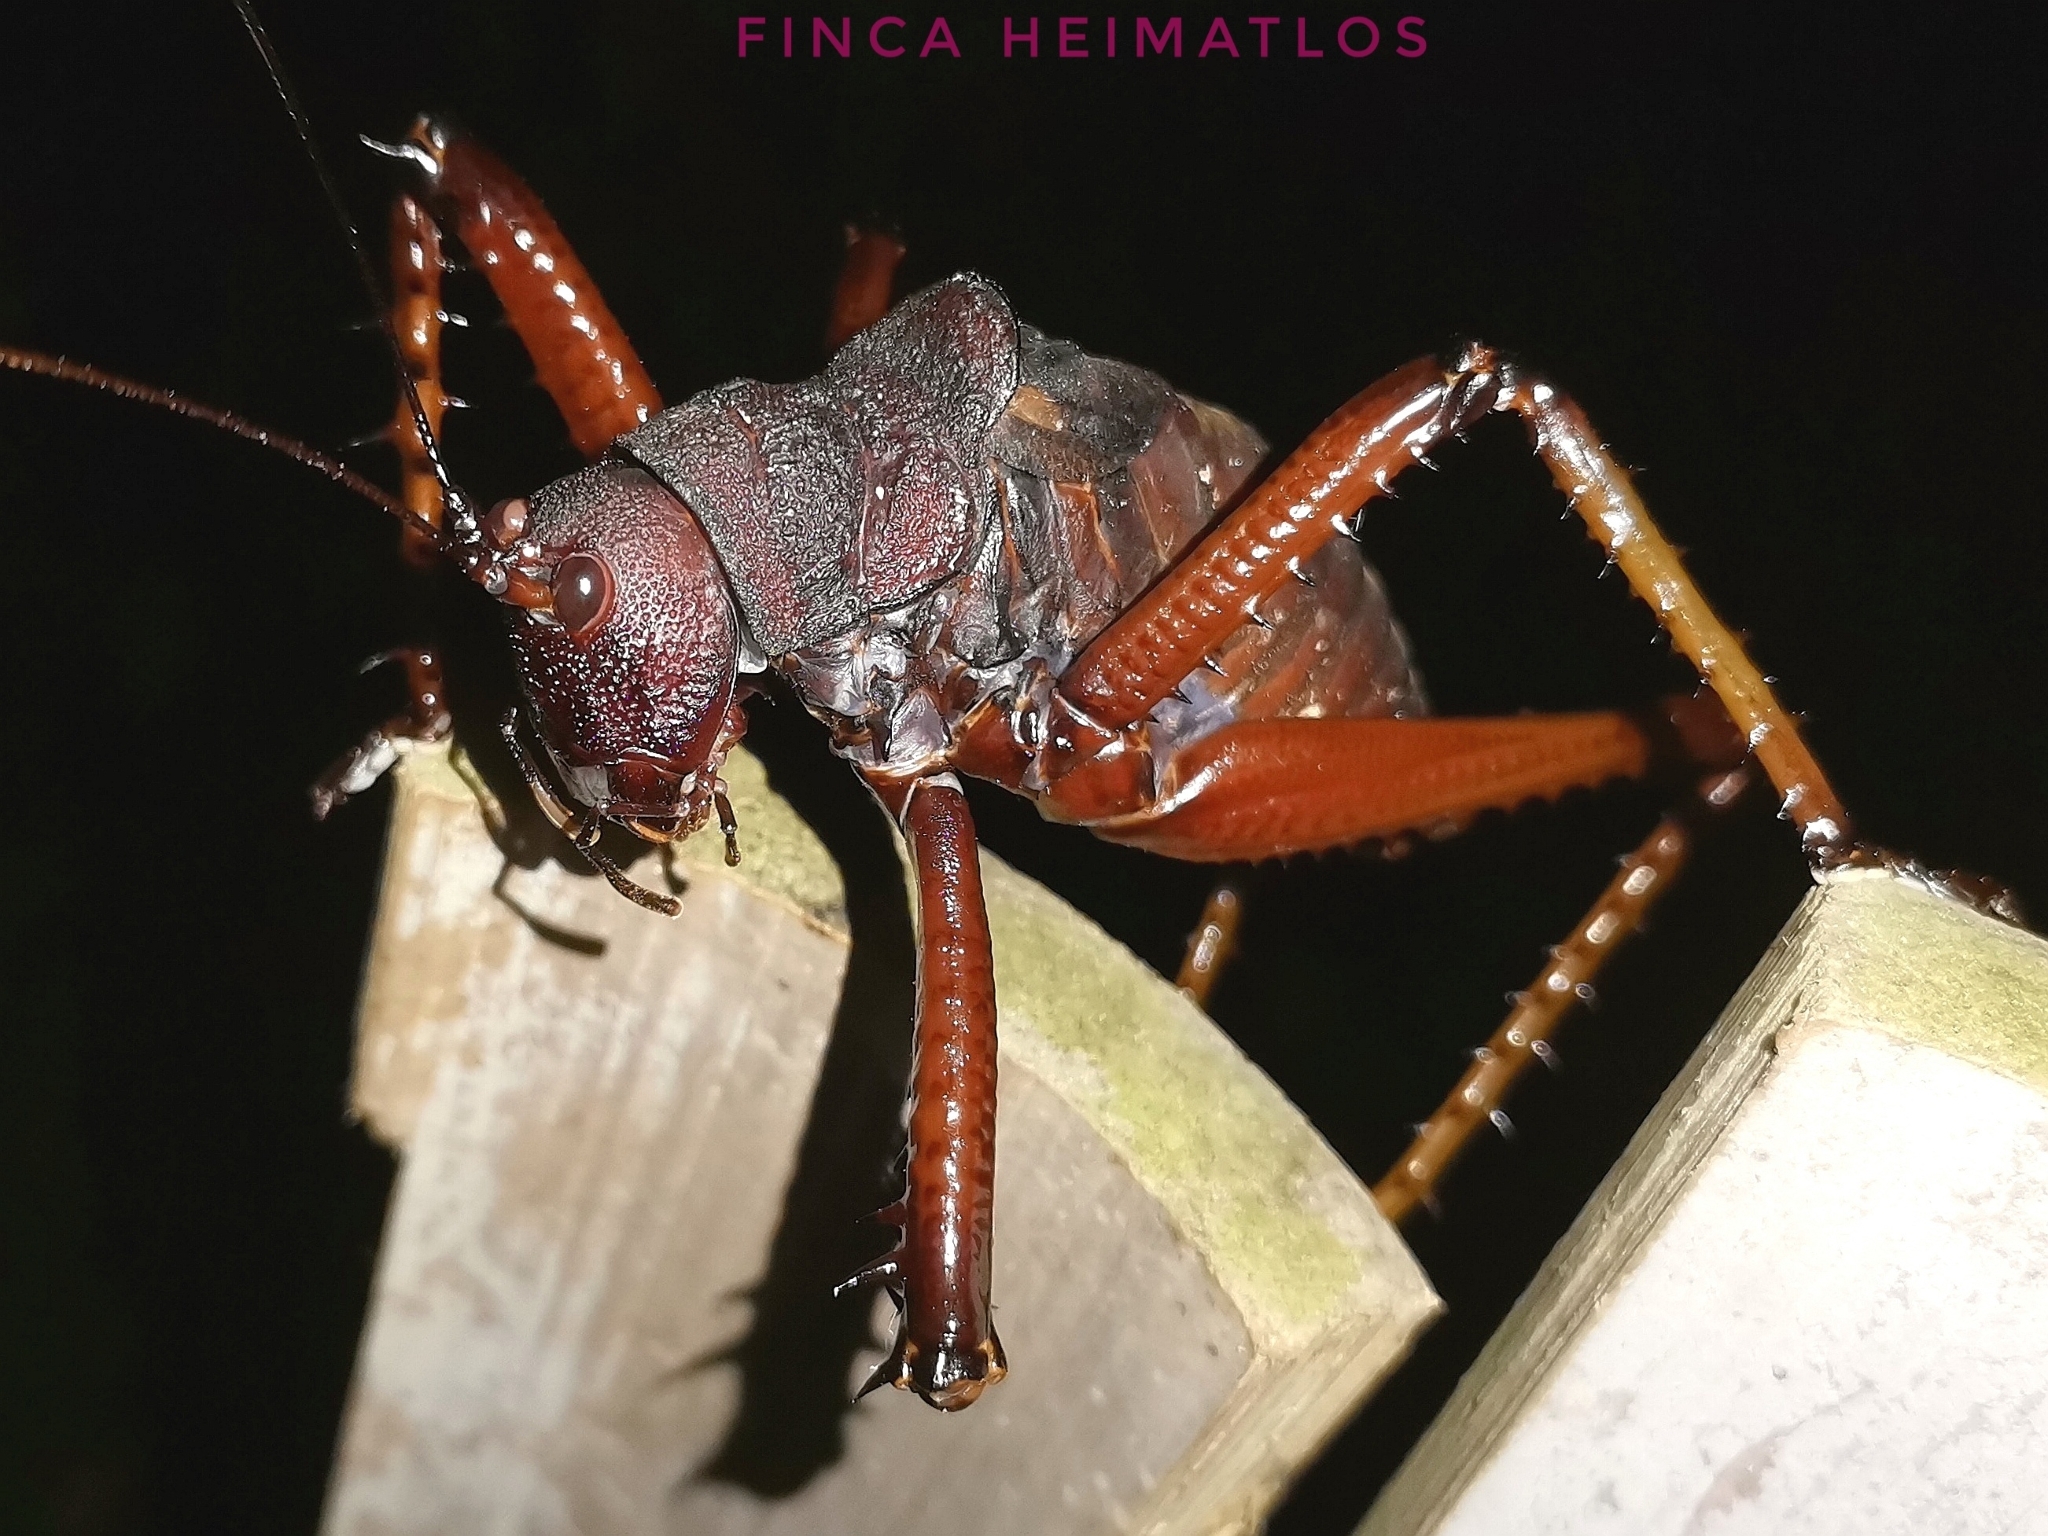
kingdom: Animalia
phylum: Arthropoda
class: Insecta
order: Orthoptera
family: Tettigoniidae
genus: Panoploscelis
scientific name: Panoploscelis specularis
